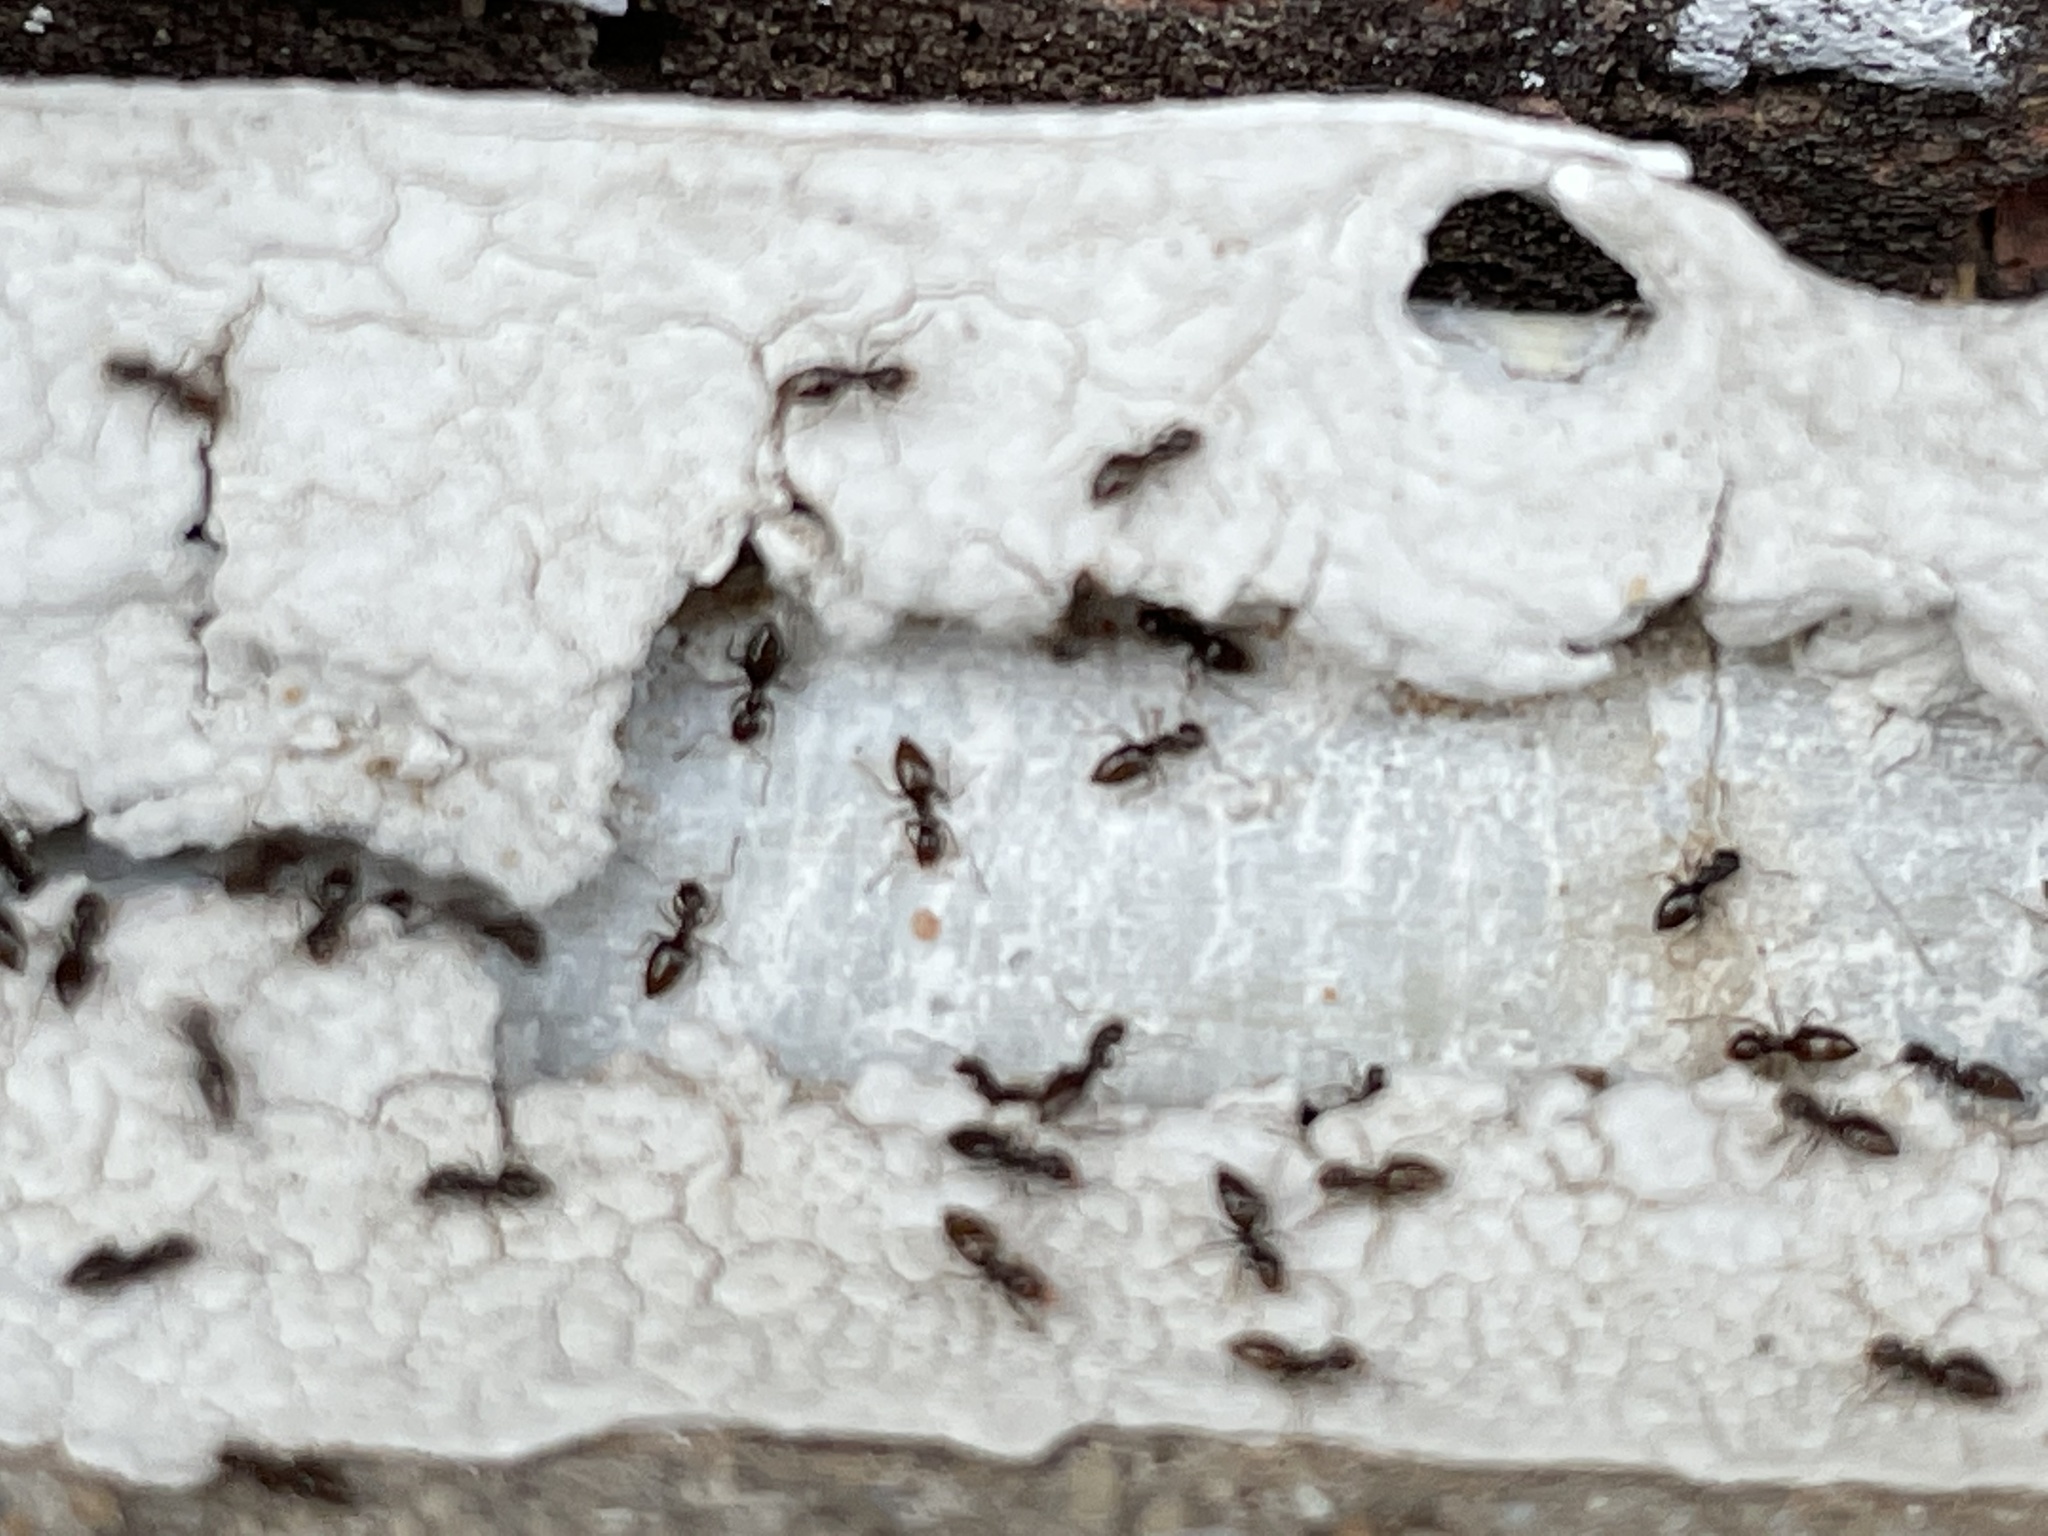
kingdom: Animalia
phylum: Arthropoda
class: Insecta
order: Hymenoptera
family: Formicidae
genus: Brachymyrmex
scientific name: Brachymyrmex patagonicus
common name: Dark rover ant
